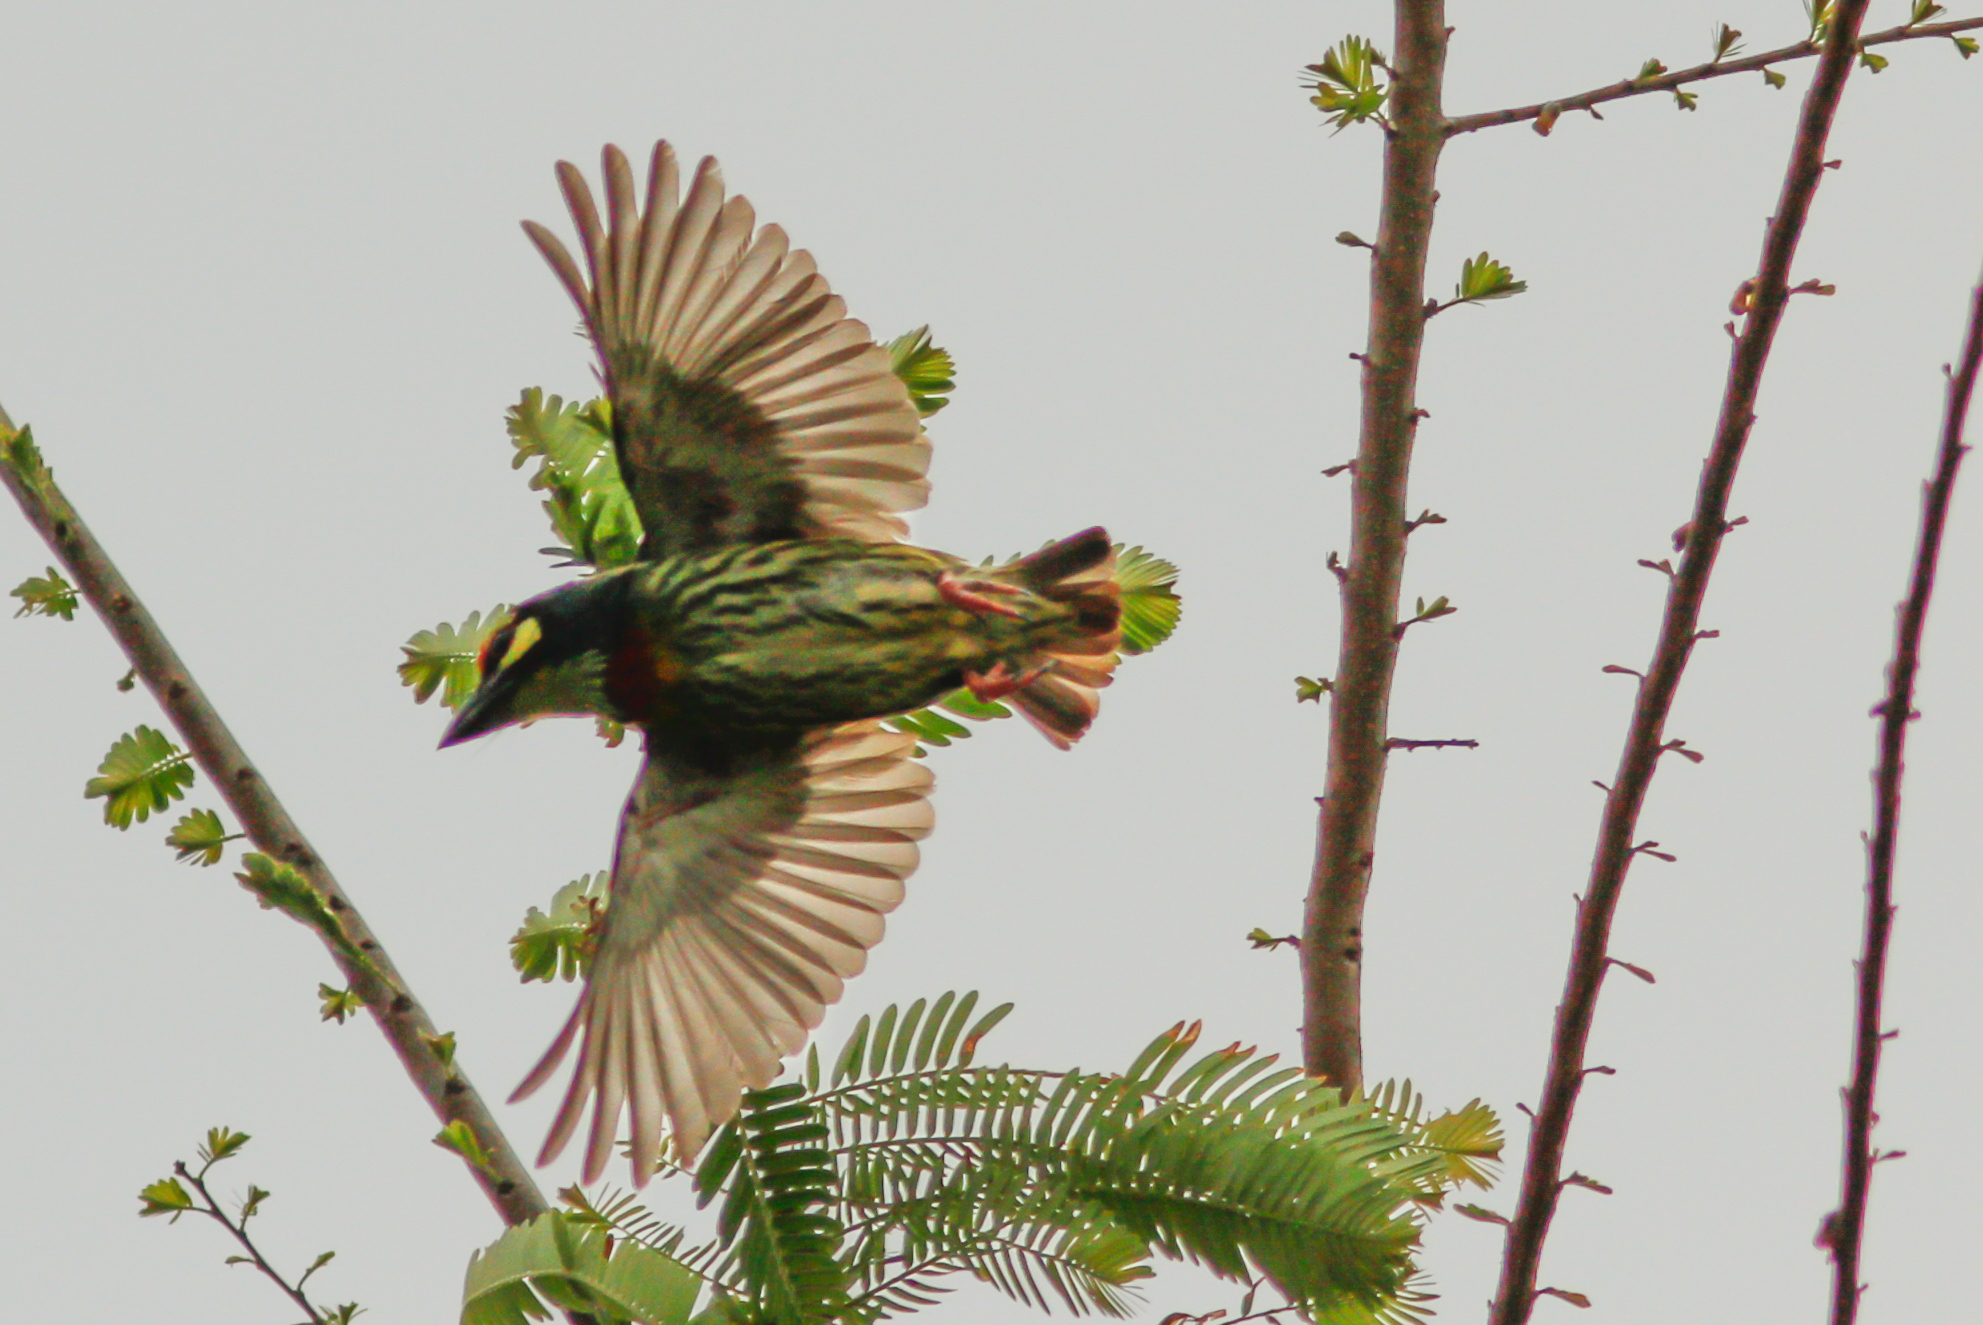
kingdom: Animalia
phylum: Chordata
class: Aves
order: Piciformes
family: Megalaimidae
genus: Psilopogon
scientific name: Psilopogon haemacephalus
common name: Coppersmith barbet
